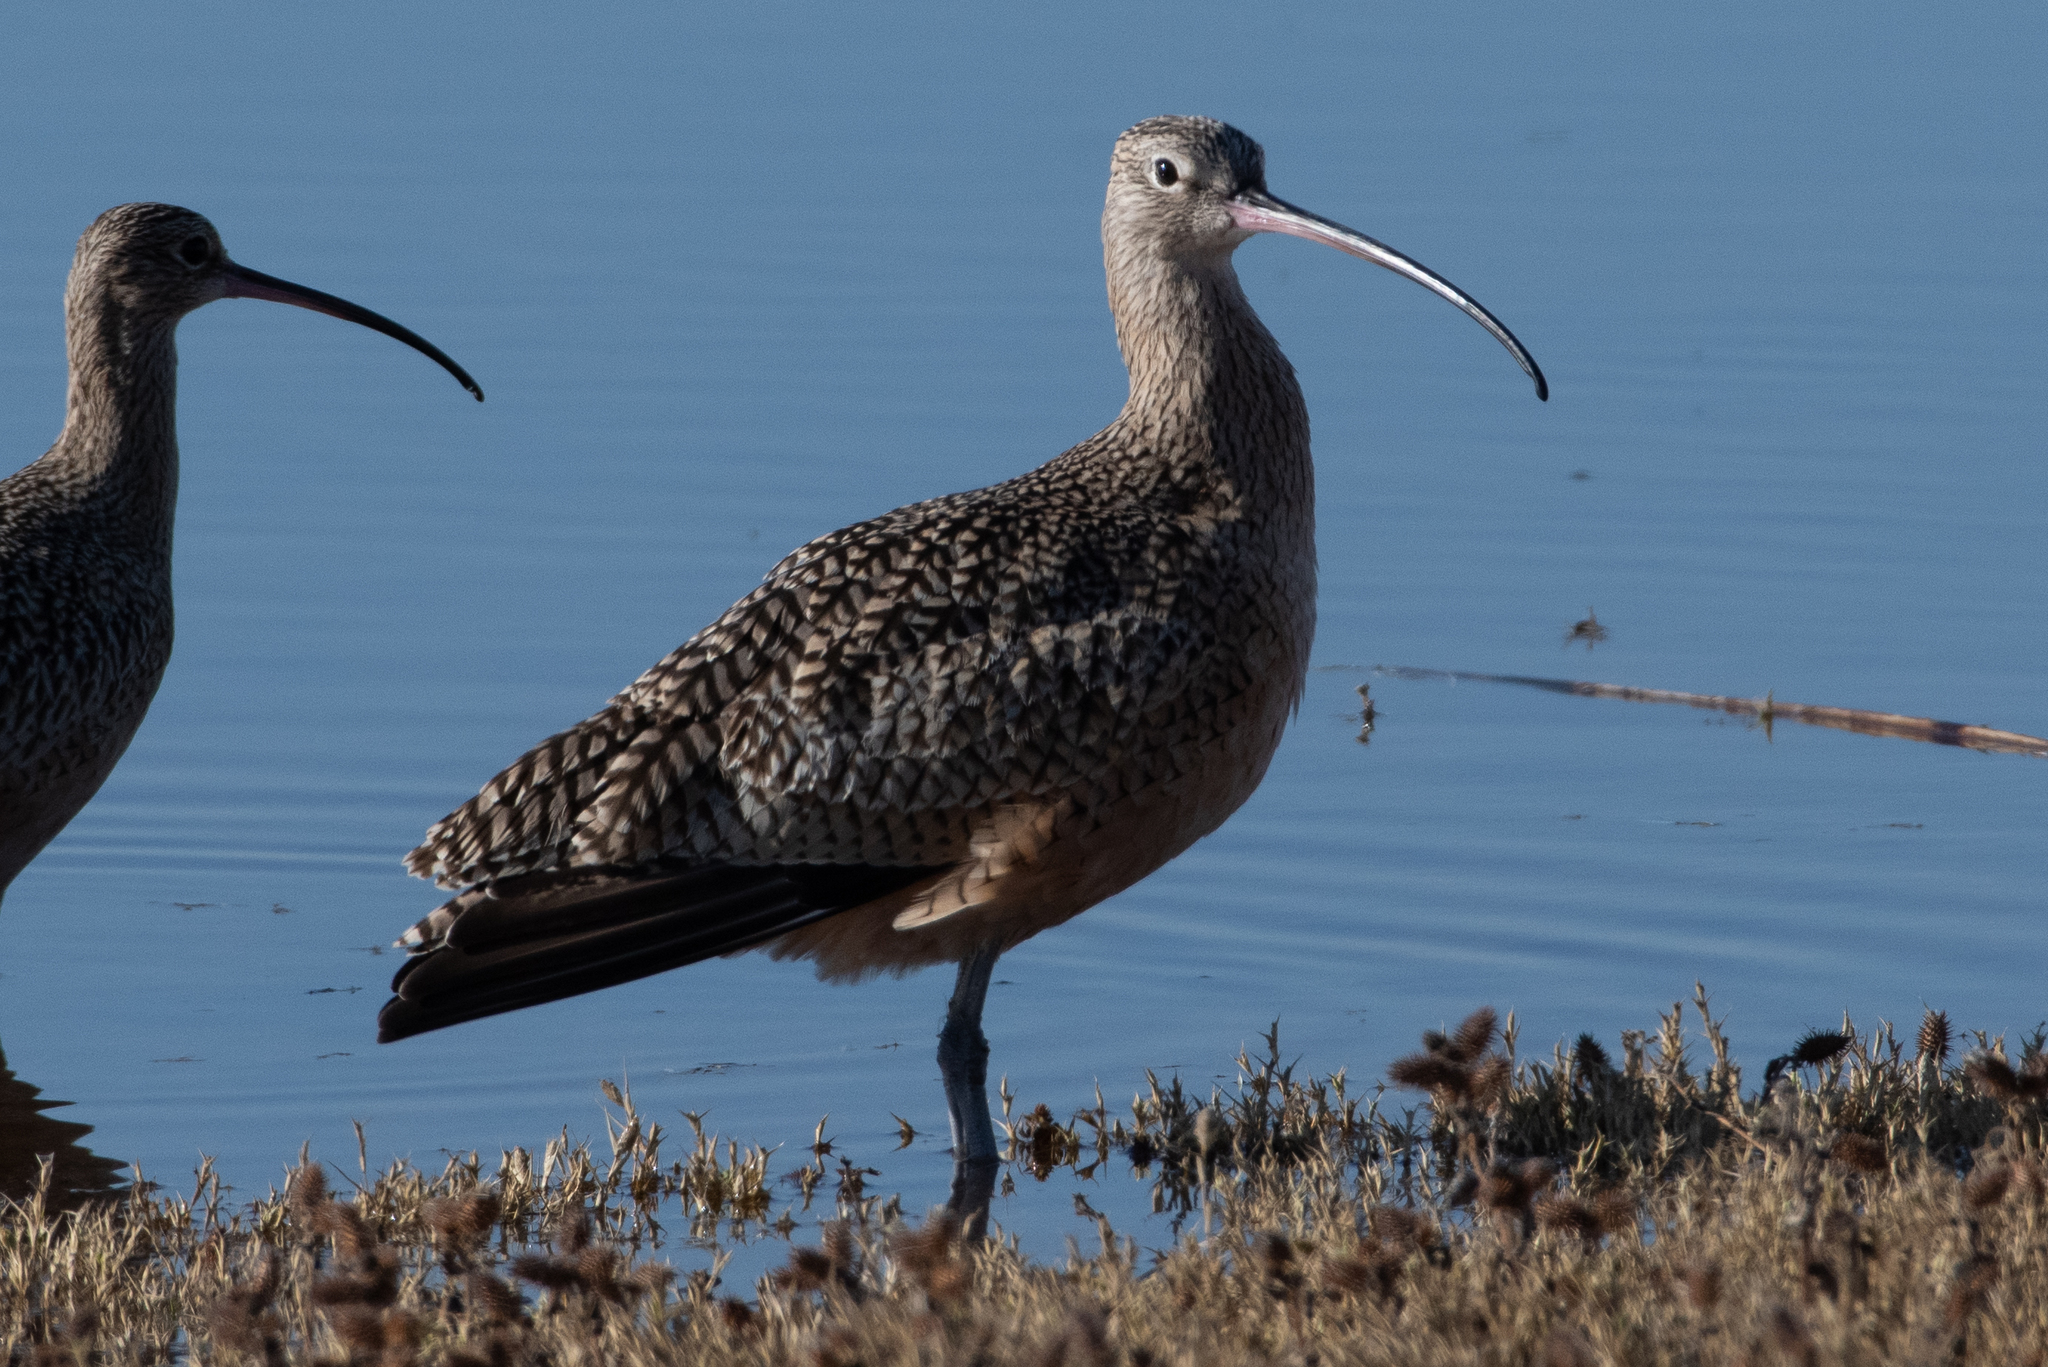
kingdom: Animalia
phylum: Chordata
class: Aves
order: Charadriiformes
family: Scolopacidae
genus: Numenius
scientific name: Numenius americanus
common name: Long-billed curlew
